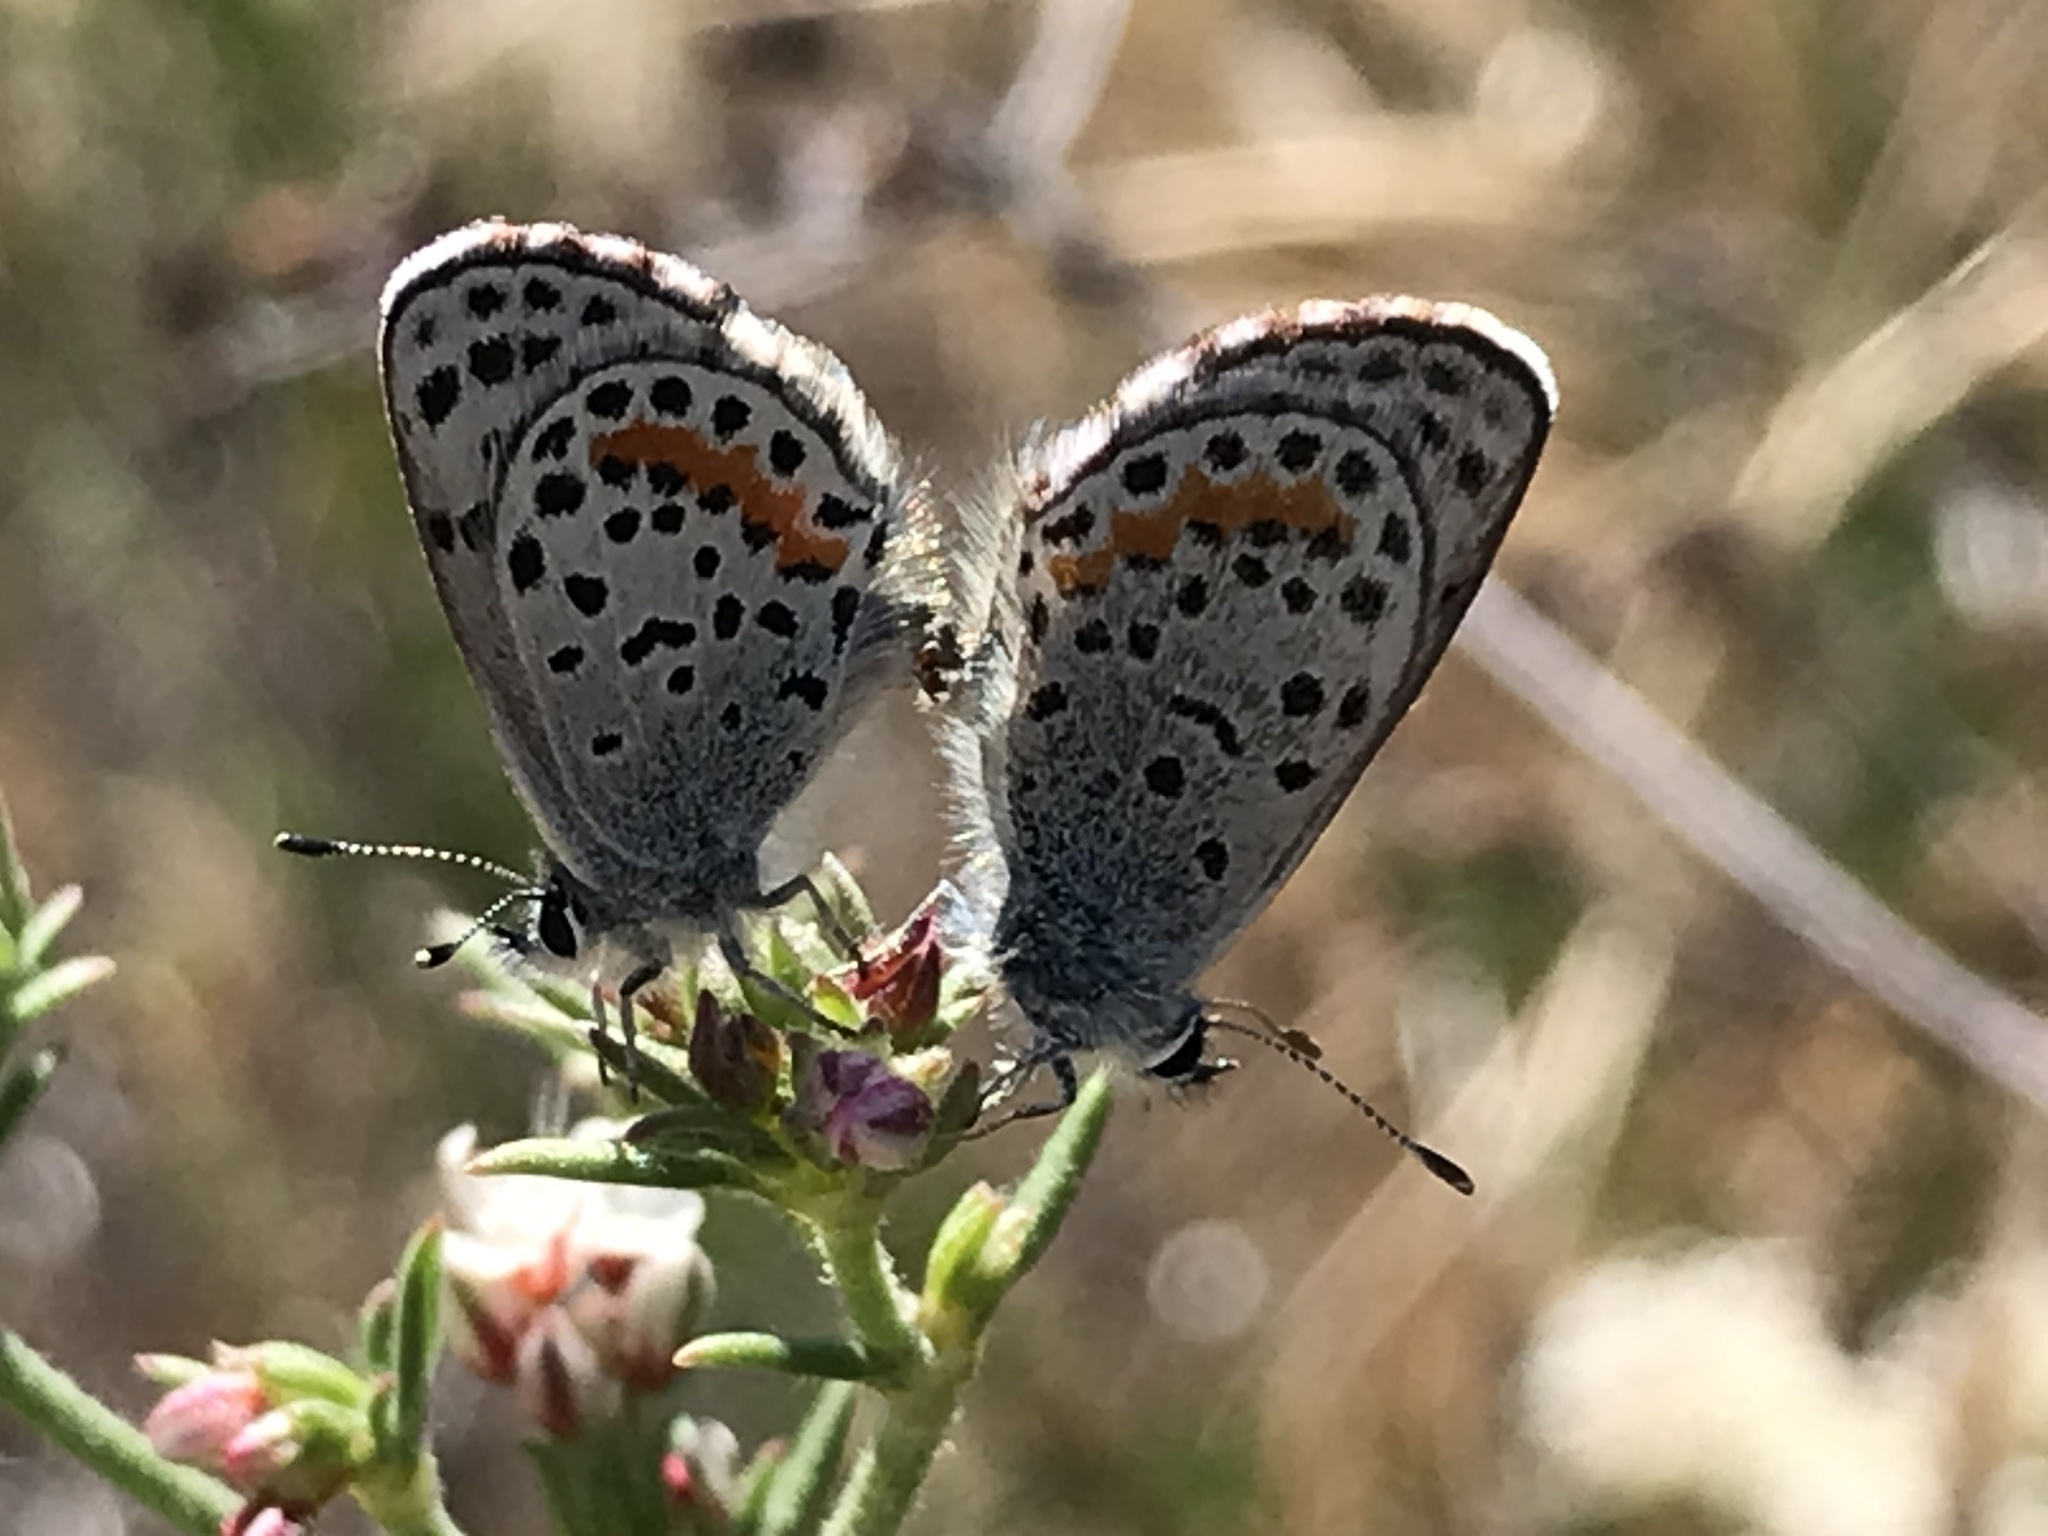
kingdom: Animalia
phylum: Arthropoda
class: Insecta
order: Lepidoptera
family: Lycaenidae
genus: Philotes
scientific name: Philotes bernardino
